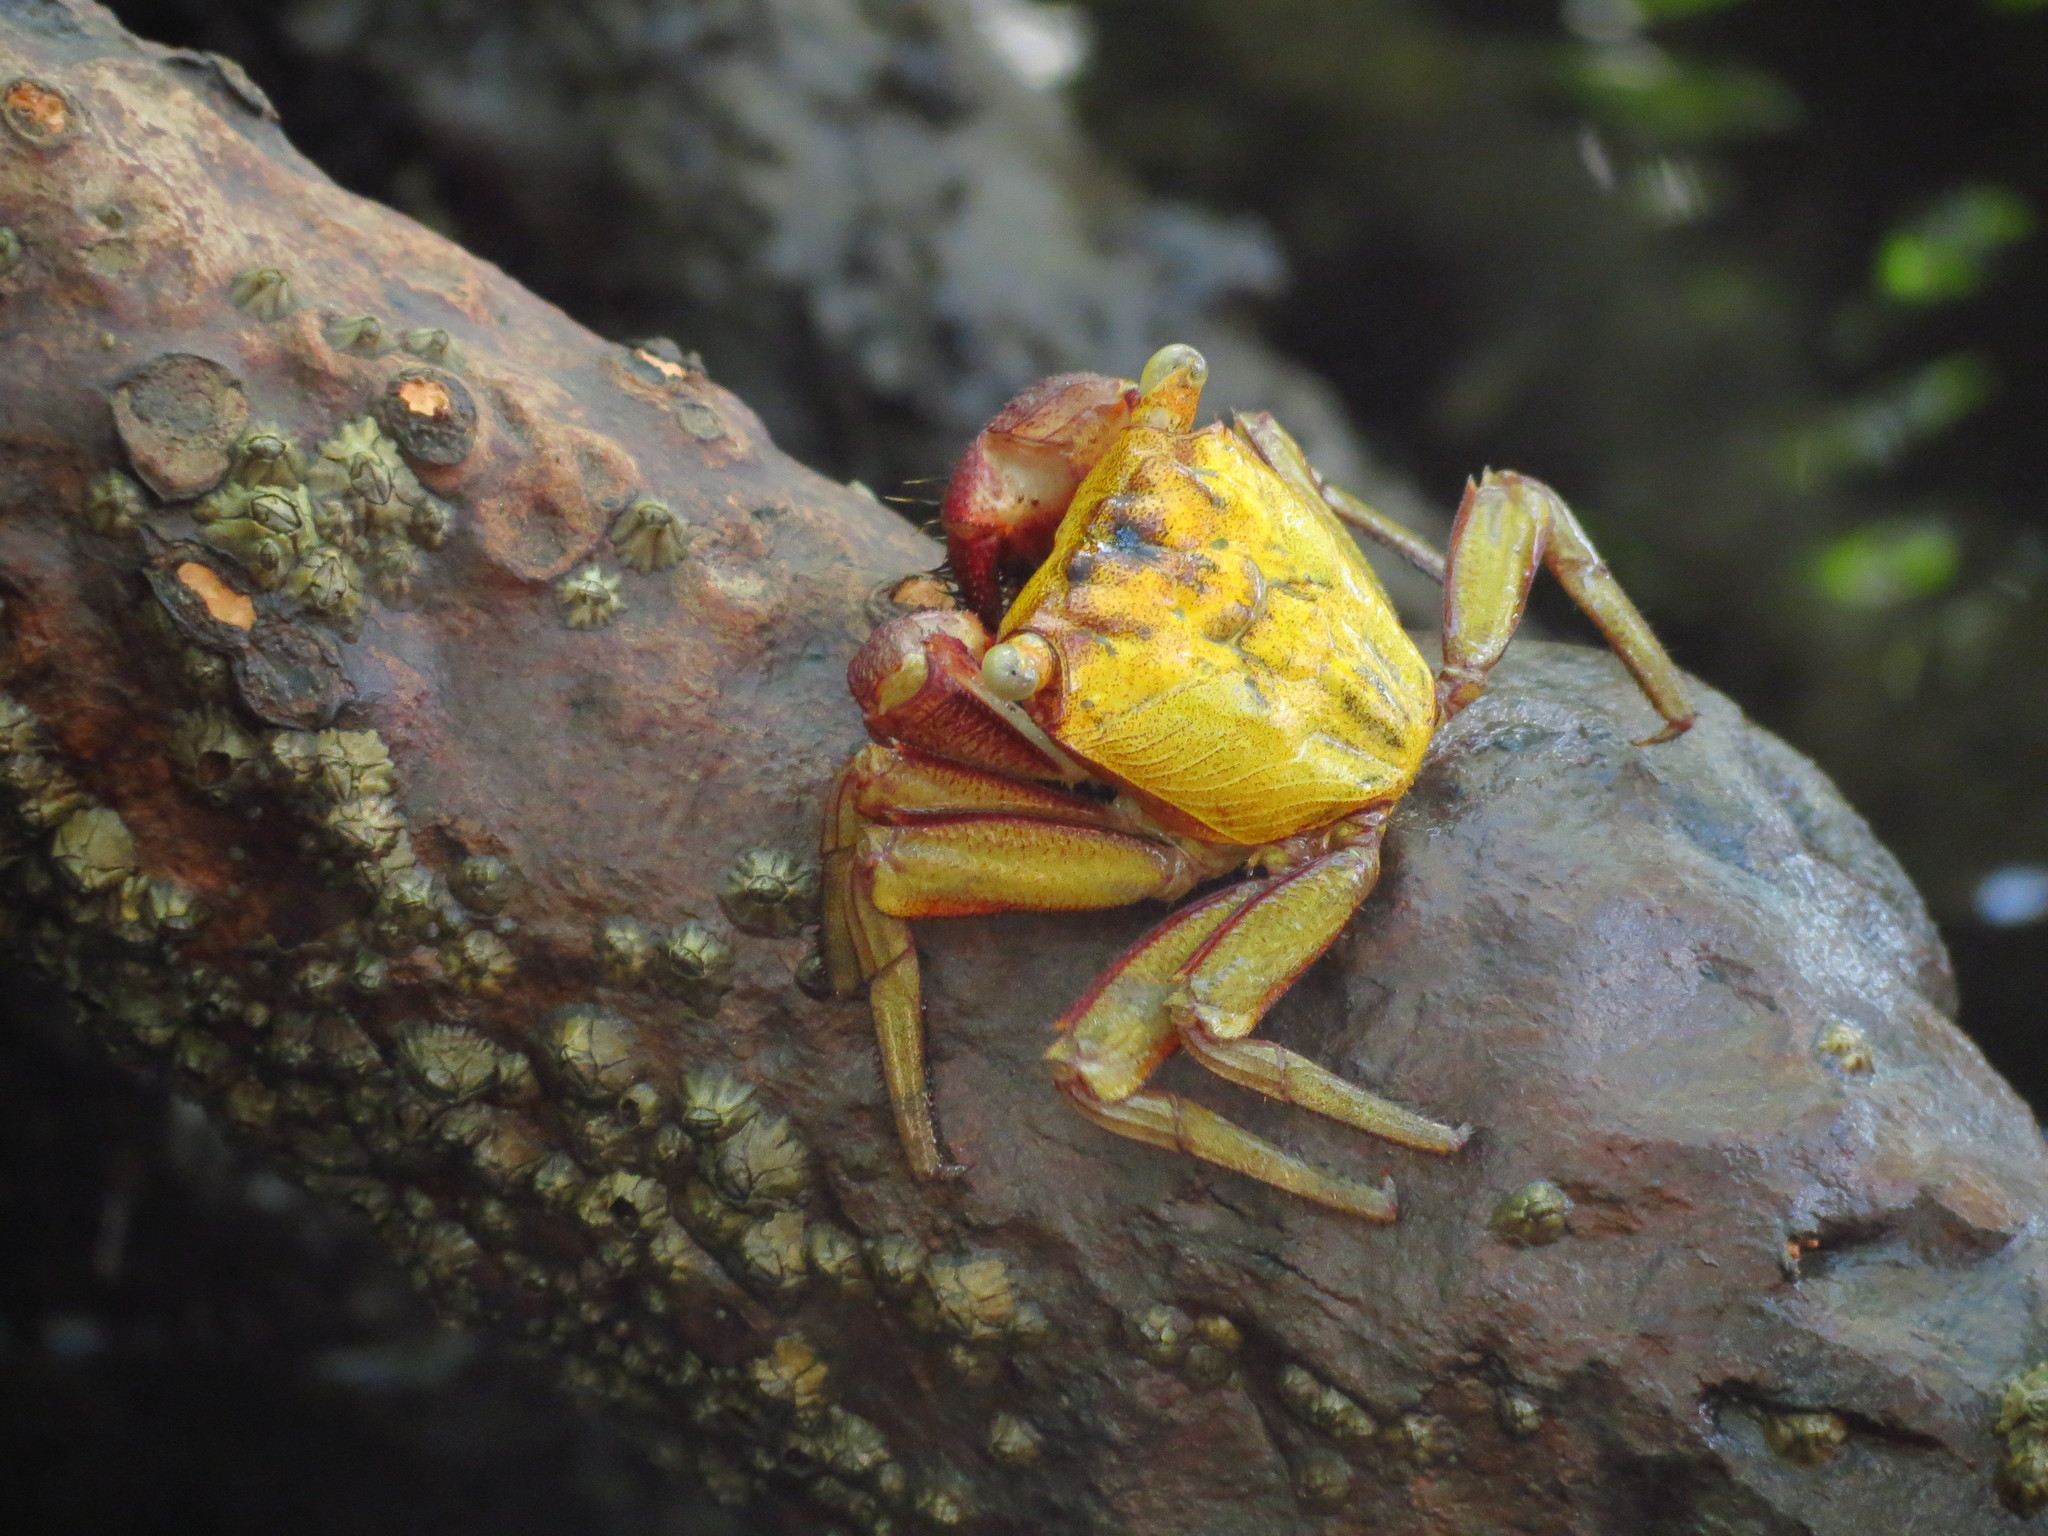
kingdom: Animalia
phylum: Arthropoda
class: Malacostraca
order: Decapoda
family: Sesarmidae
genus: Aratus
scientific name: Aratus pisonii
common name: Mangrove crab
